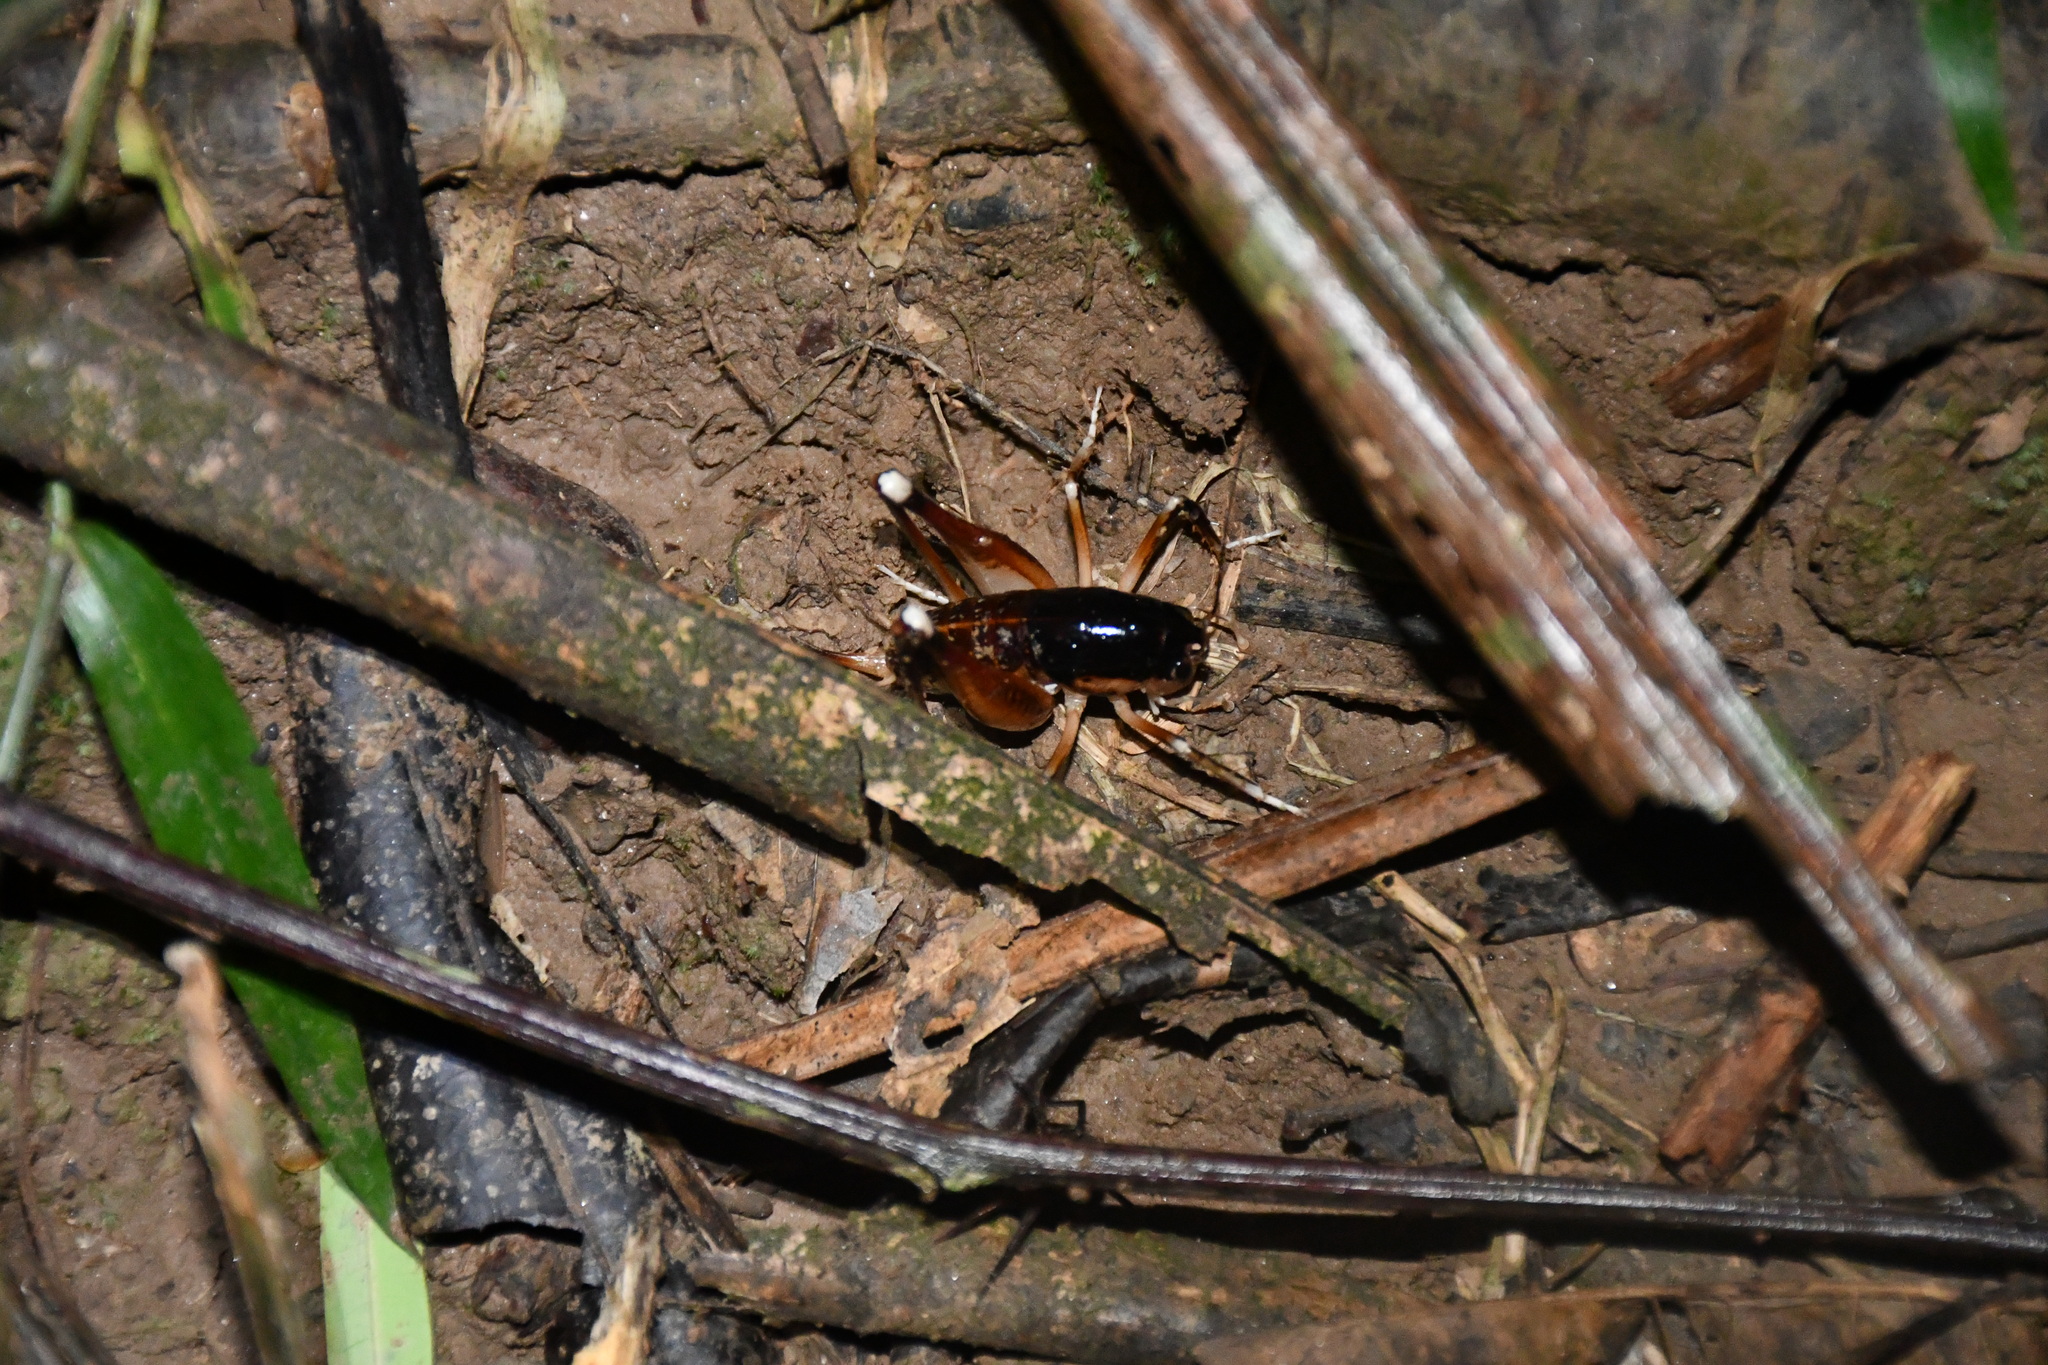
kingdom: Animalia
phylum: Arthropoda
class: Insecta
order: Orthoptera
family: Anostostomatidae
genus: Apotetamenus
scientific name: Apotetamenus amazonae
